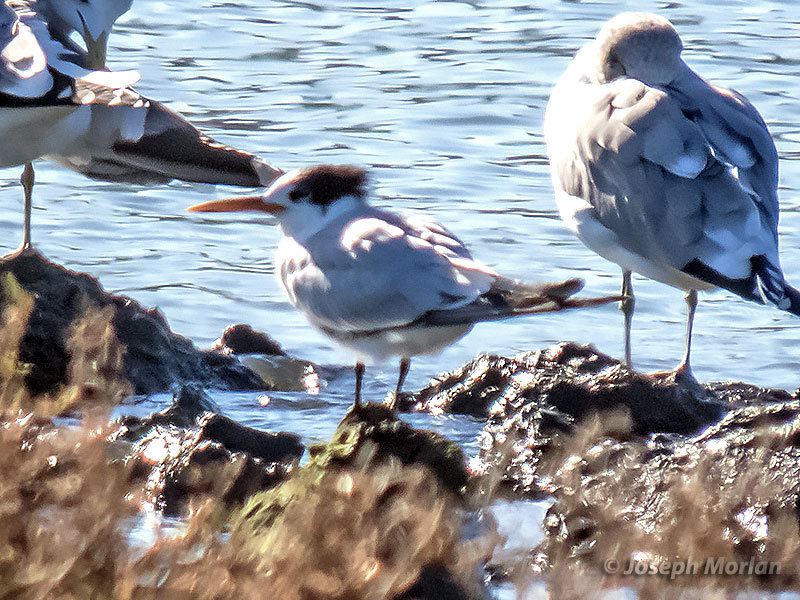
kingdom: Animalia
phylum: Chordata
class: Aves
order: Charadriiformes
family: Laridae
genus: Thalasseus
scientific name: Thalasseus elegans
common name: Elegant tern
